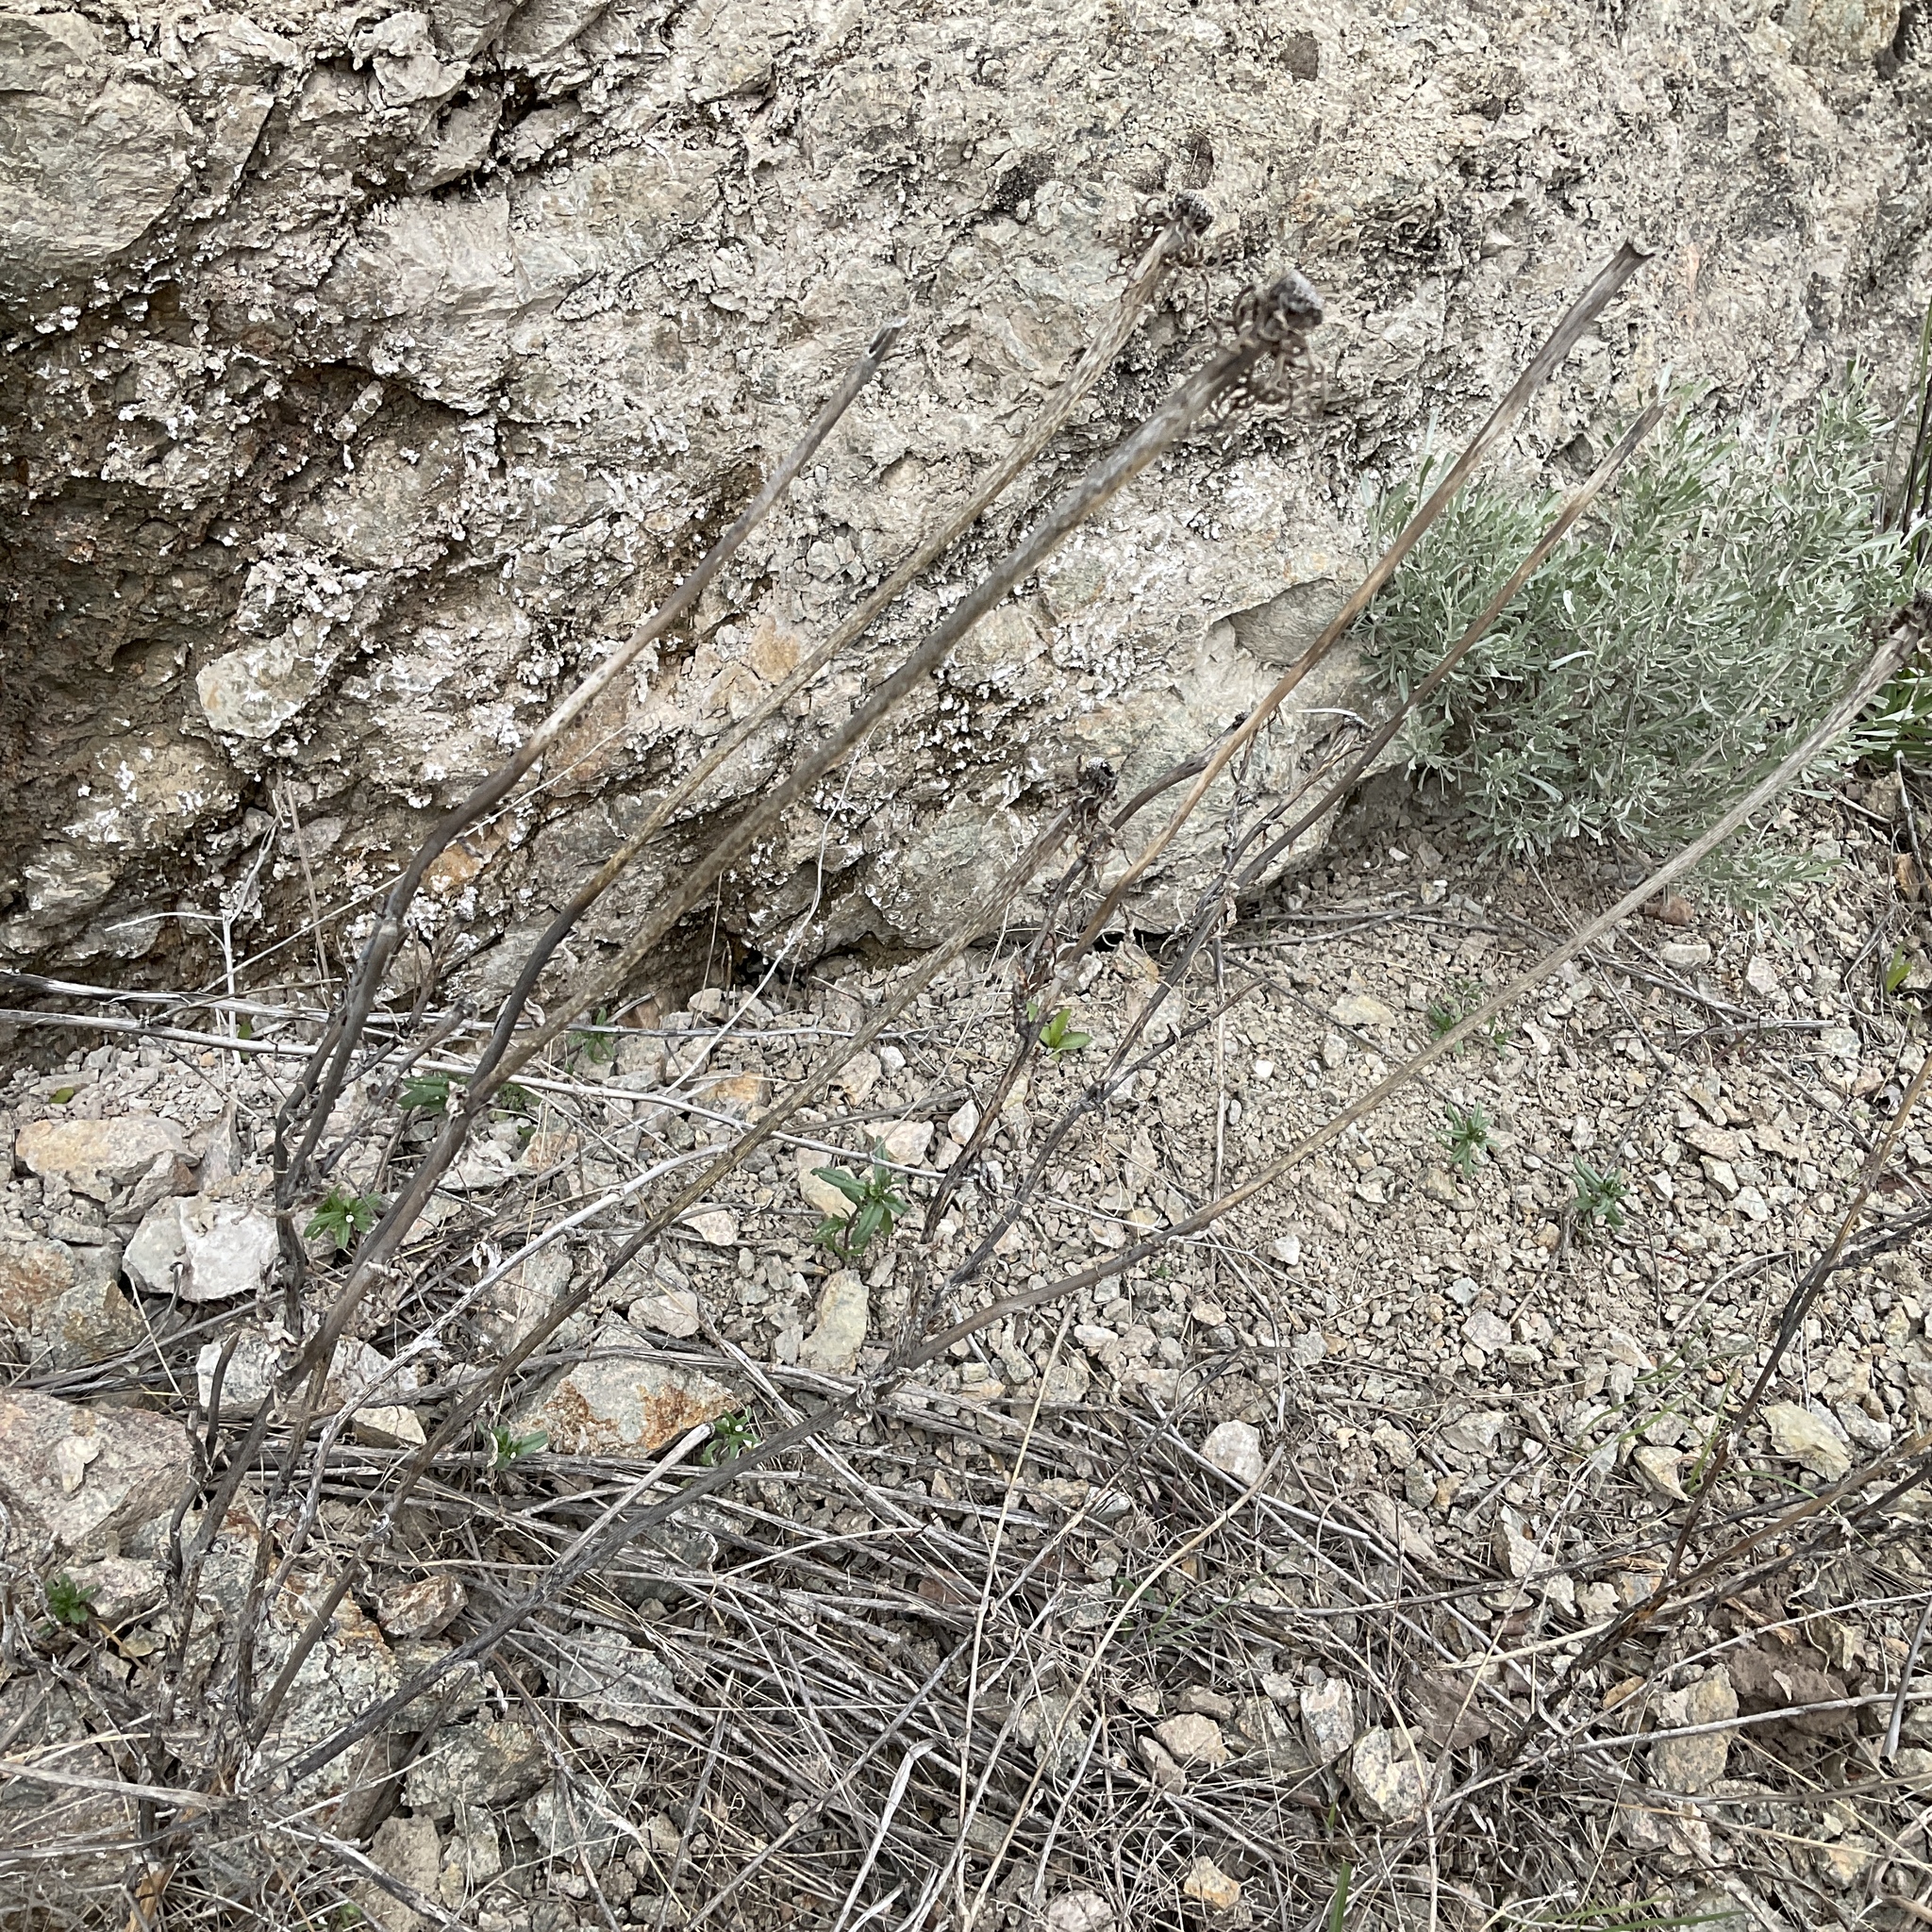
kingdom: Plantae
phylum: Tracheophyta
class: Magnoliopsida
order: Asterales
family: Asteraceae
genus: Tragopogon
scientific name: Tragopogon dubius
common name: Yellow salsify
